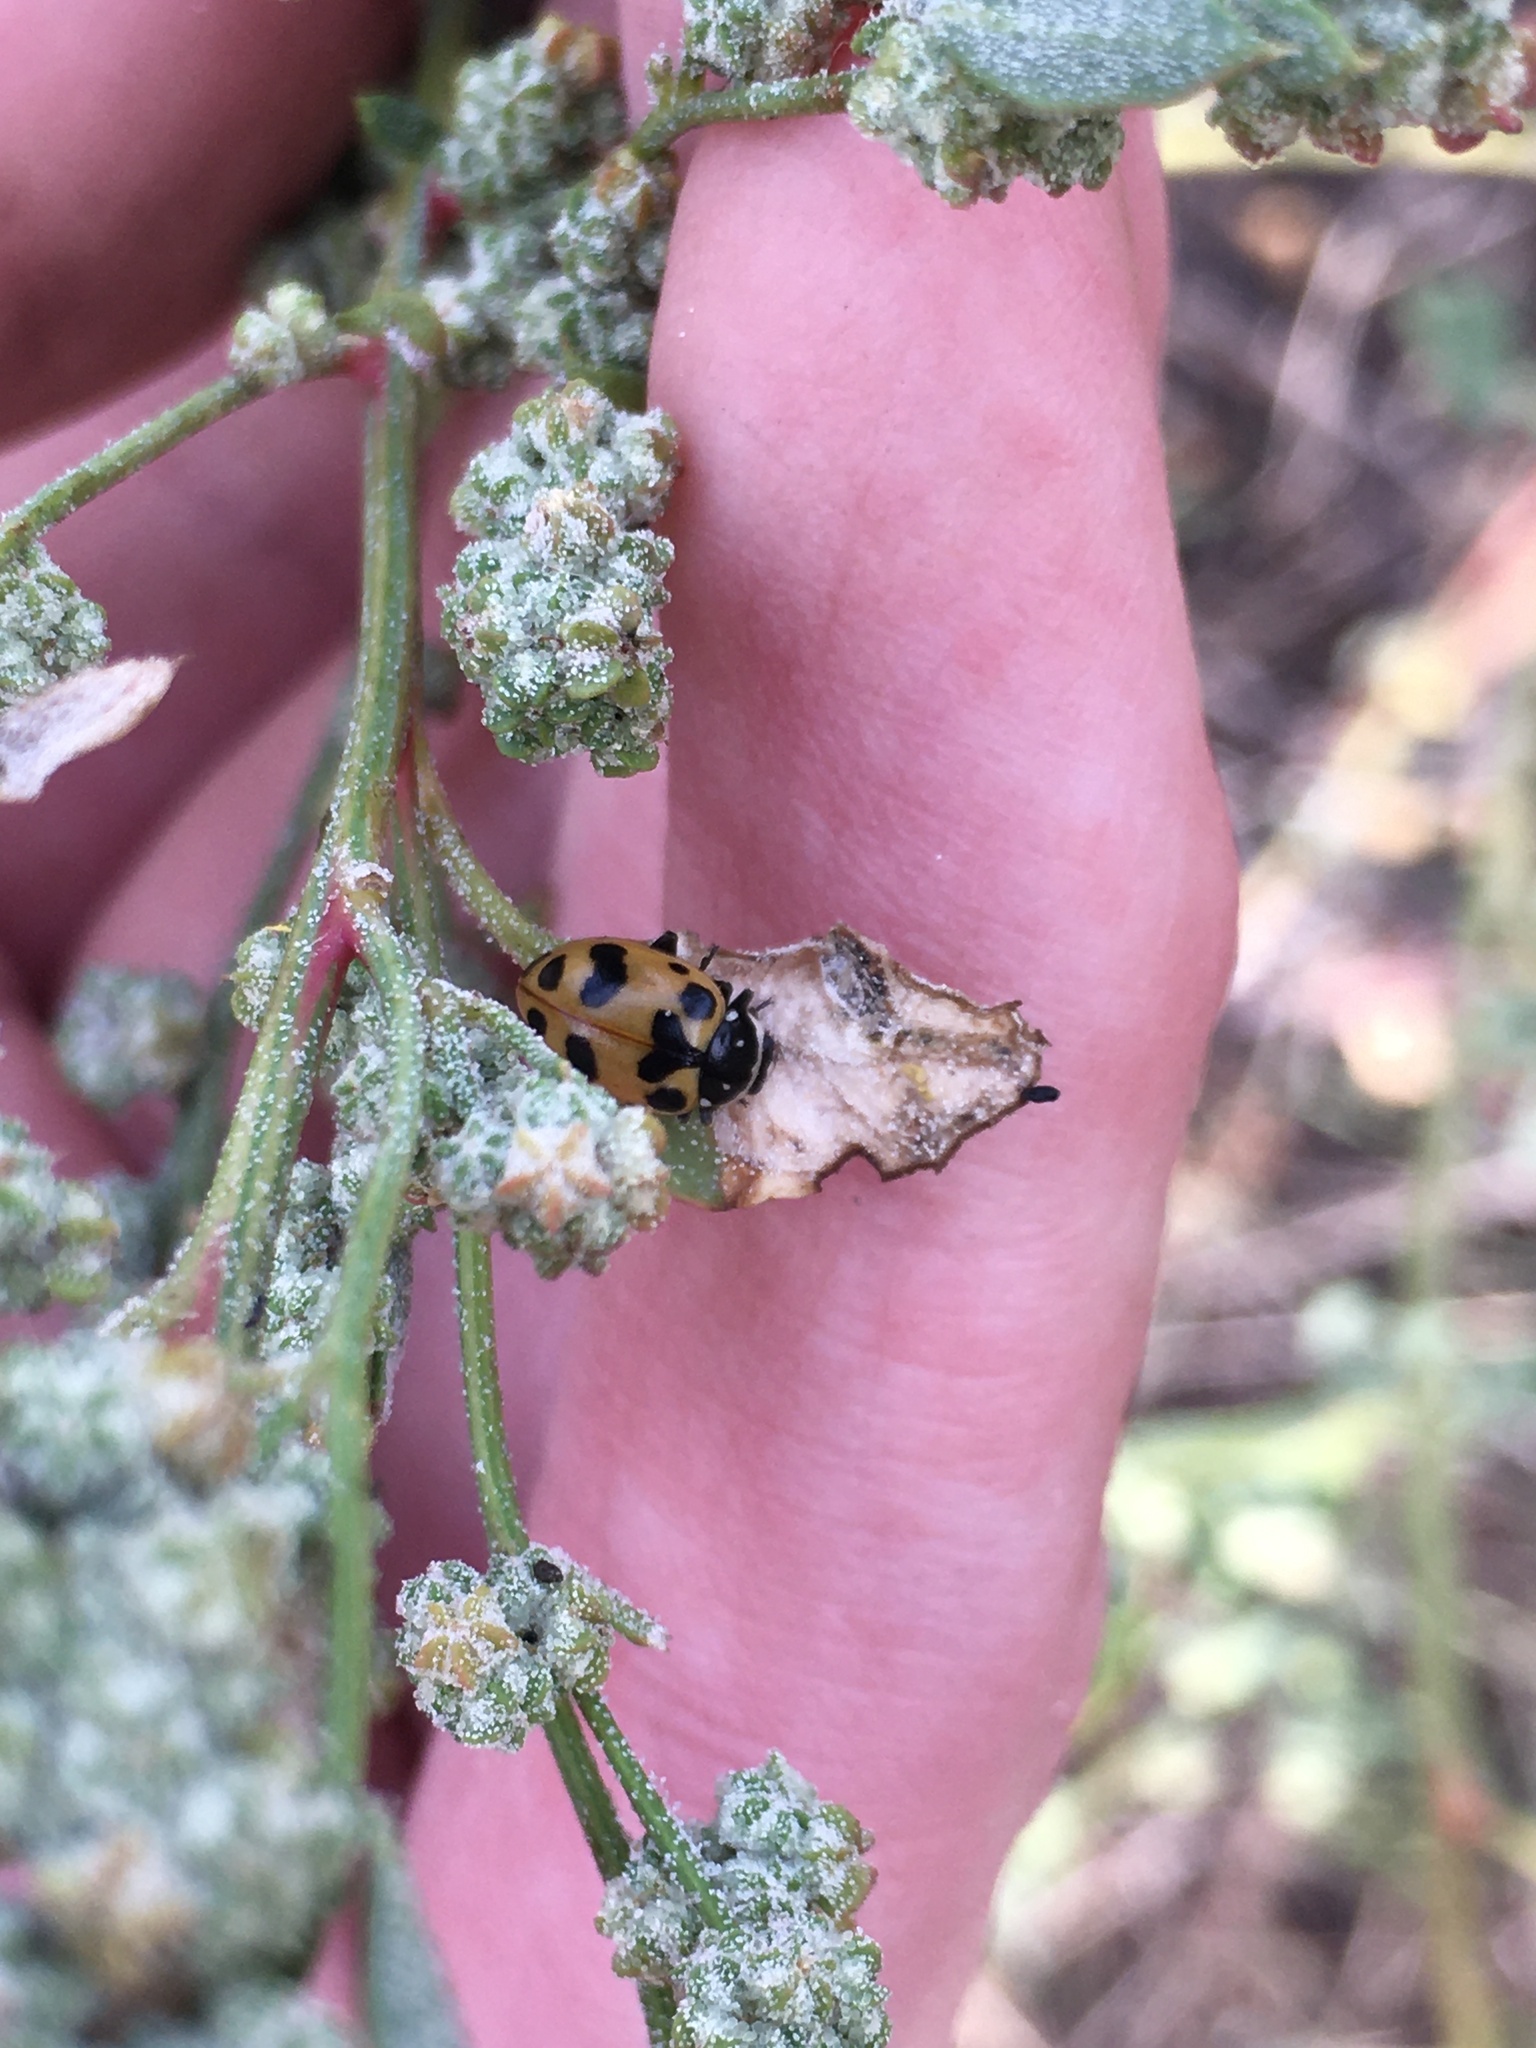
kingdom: Animalia
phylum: Arthropoda
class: Insecta
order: Coleoptera
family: Coccinellidae
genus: Hippodamia
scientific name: Hippodamia caseyi
